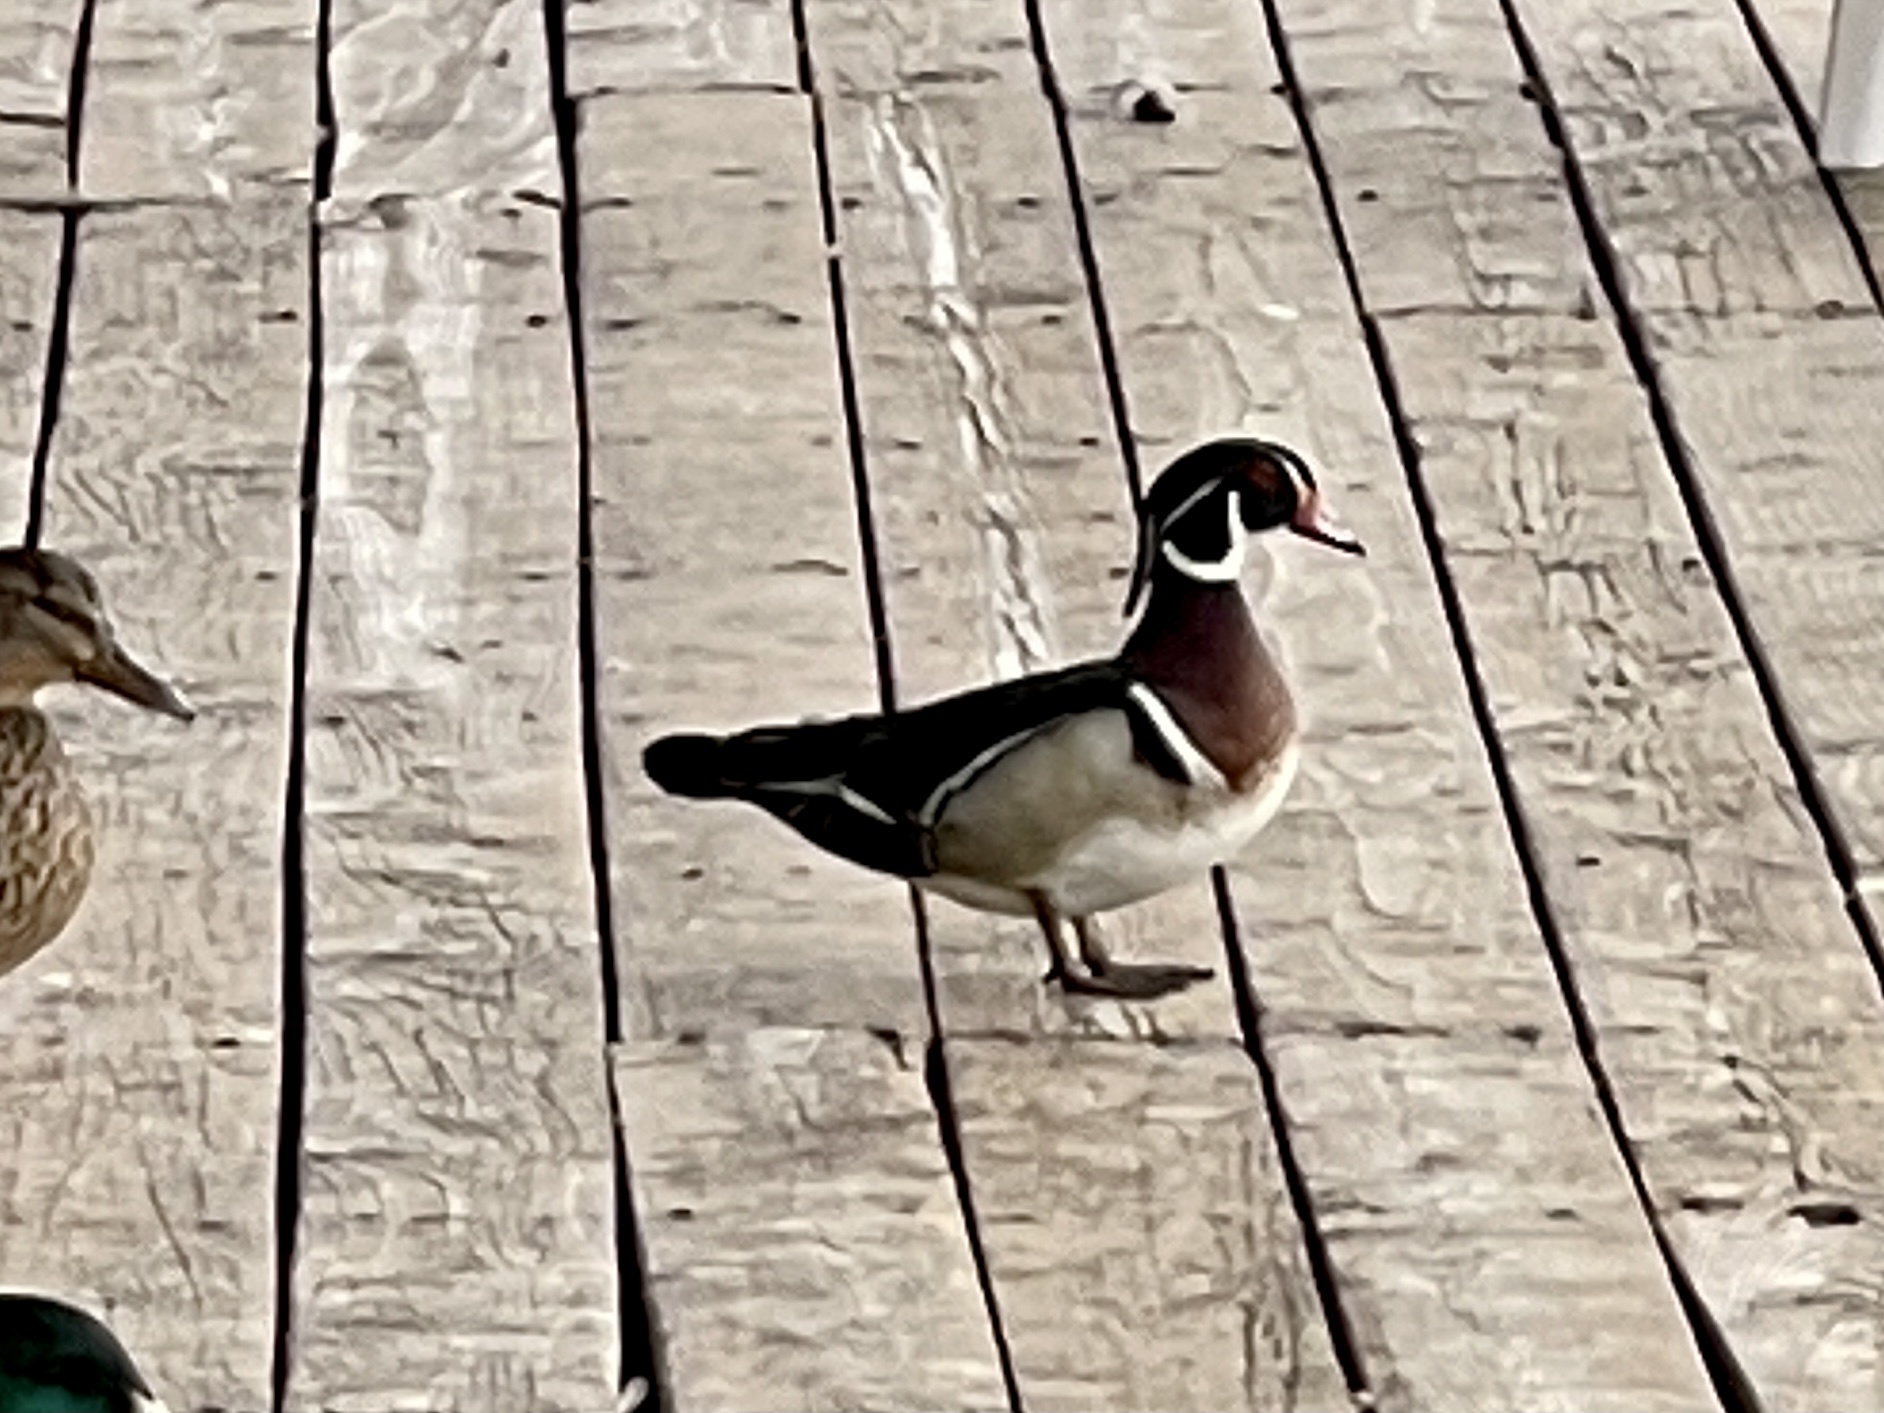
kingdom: Animalia
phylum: Chordata
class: Aves
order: Anseriformes
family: Anatidae
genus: Aix
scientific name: Aix sponsa
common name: Wood duck
